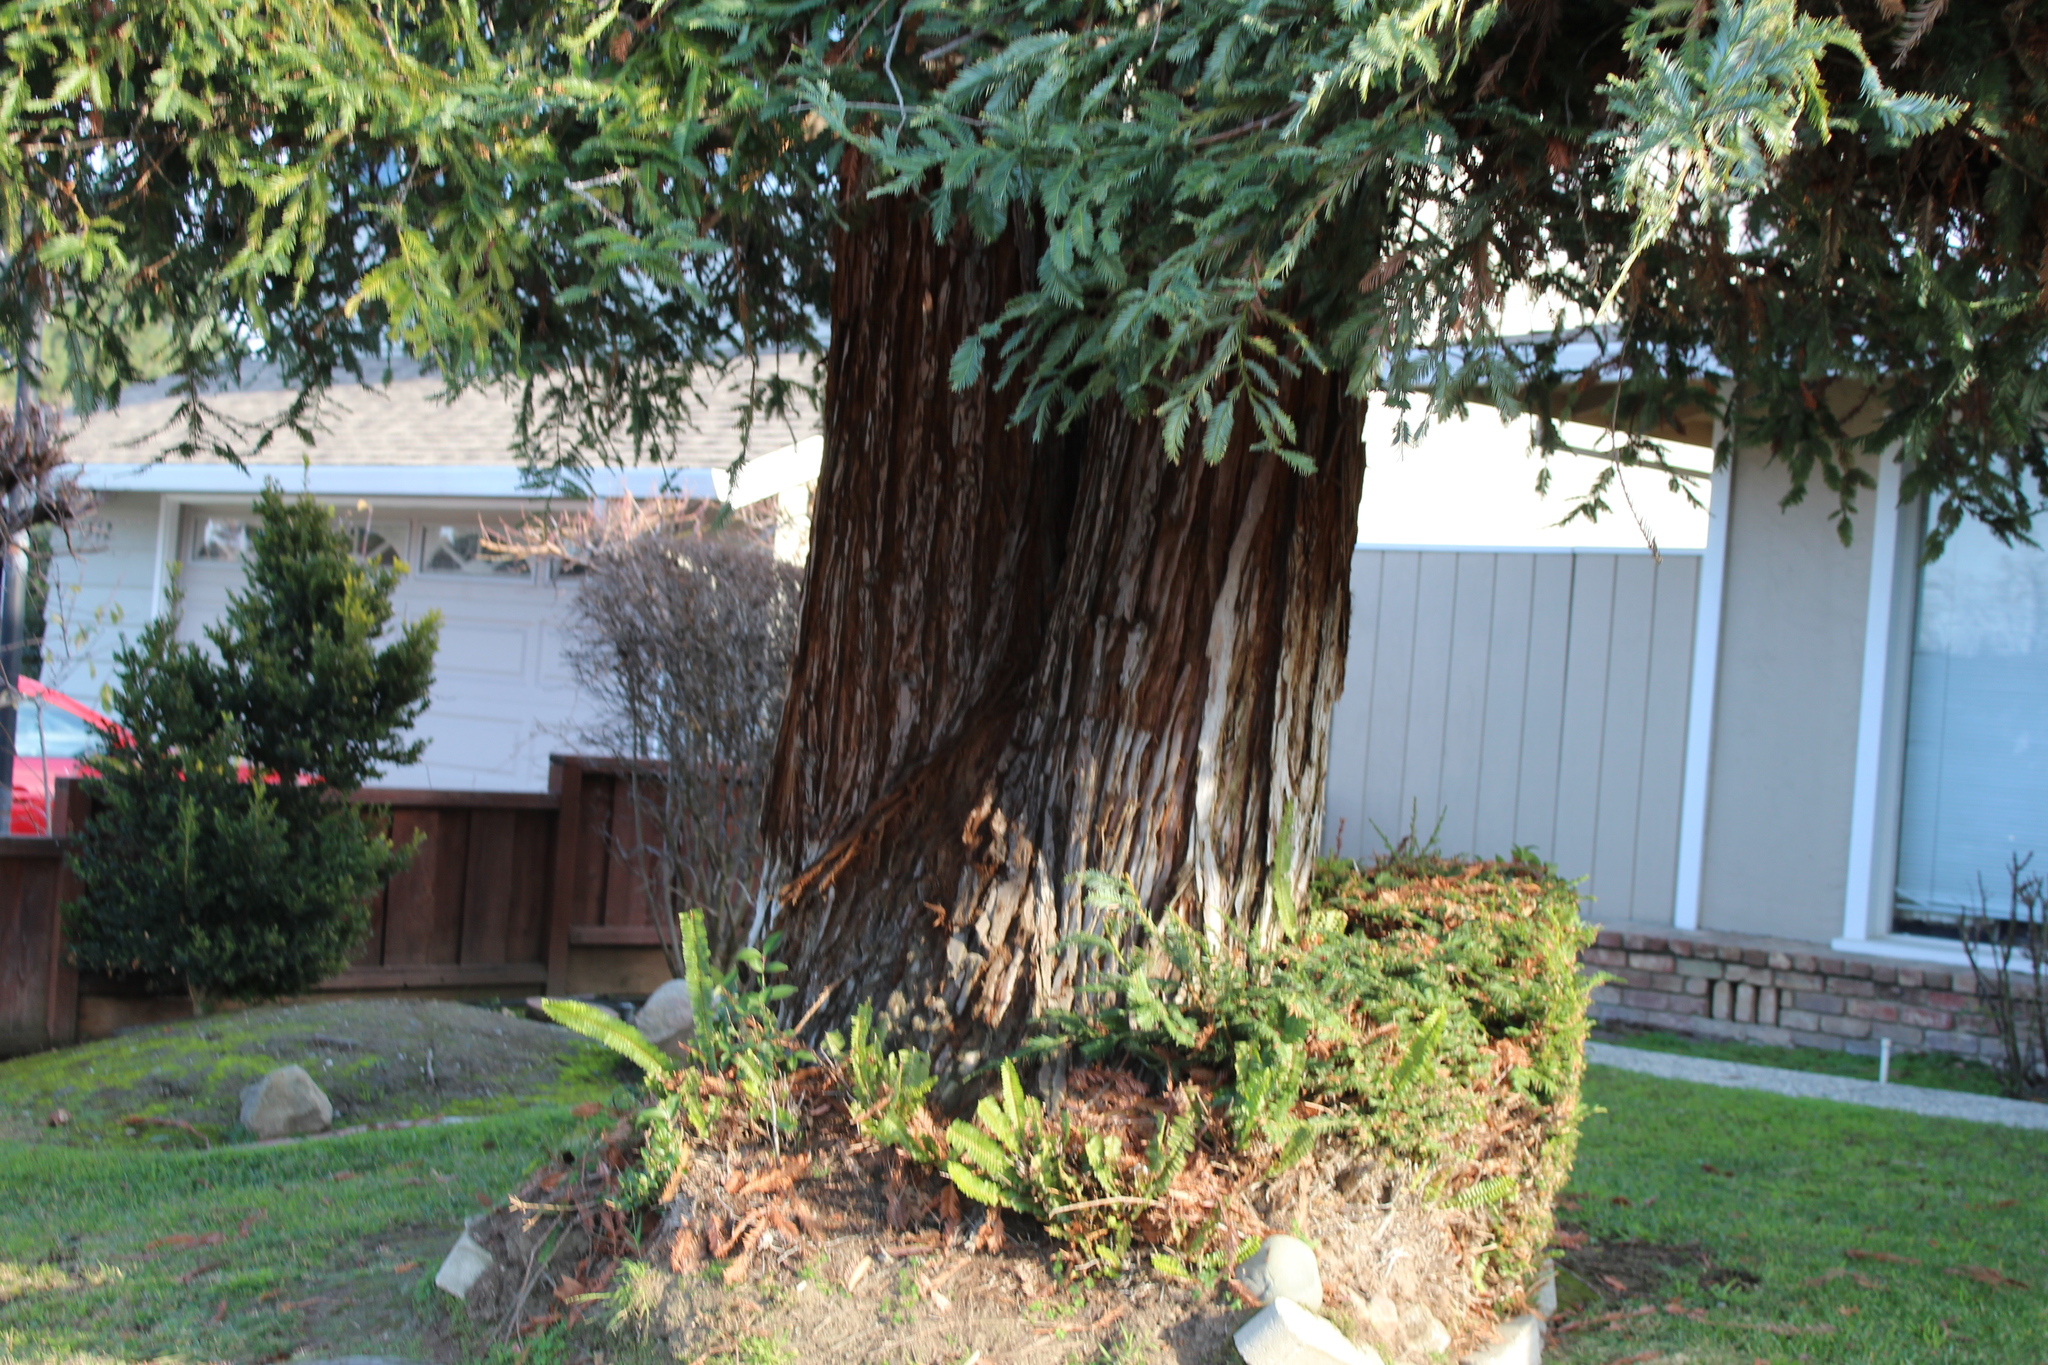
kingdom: Fungi
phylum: Basidiomycota
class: Agaricomycetes
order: Agaricales
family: Hymenogastraceae
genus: Gymnopilus
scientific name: Gymnopilus ventricosus
